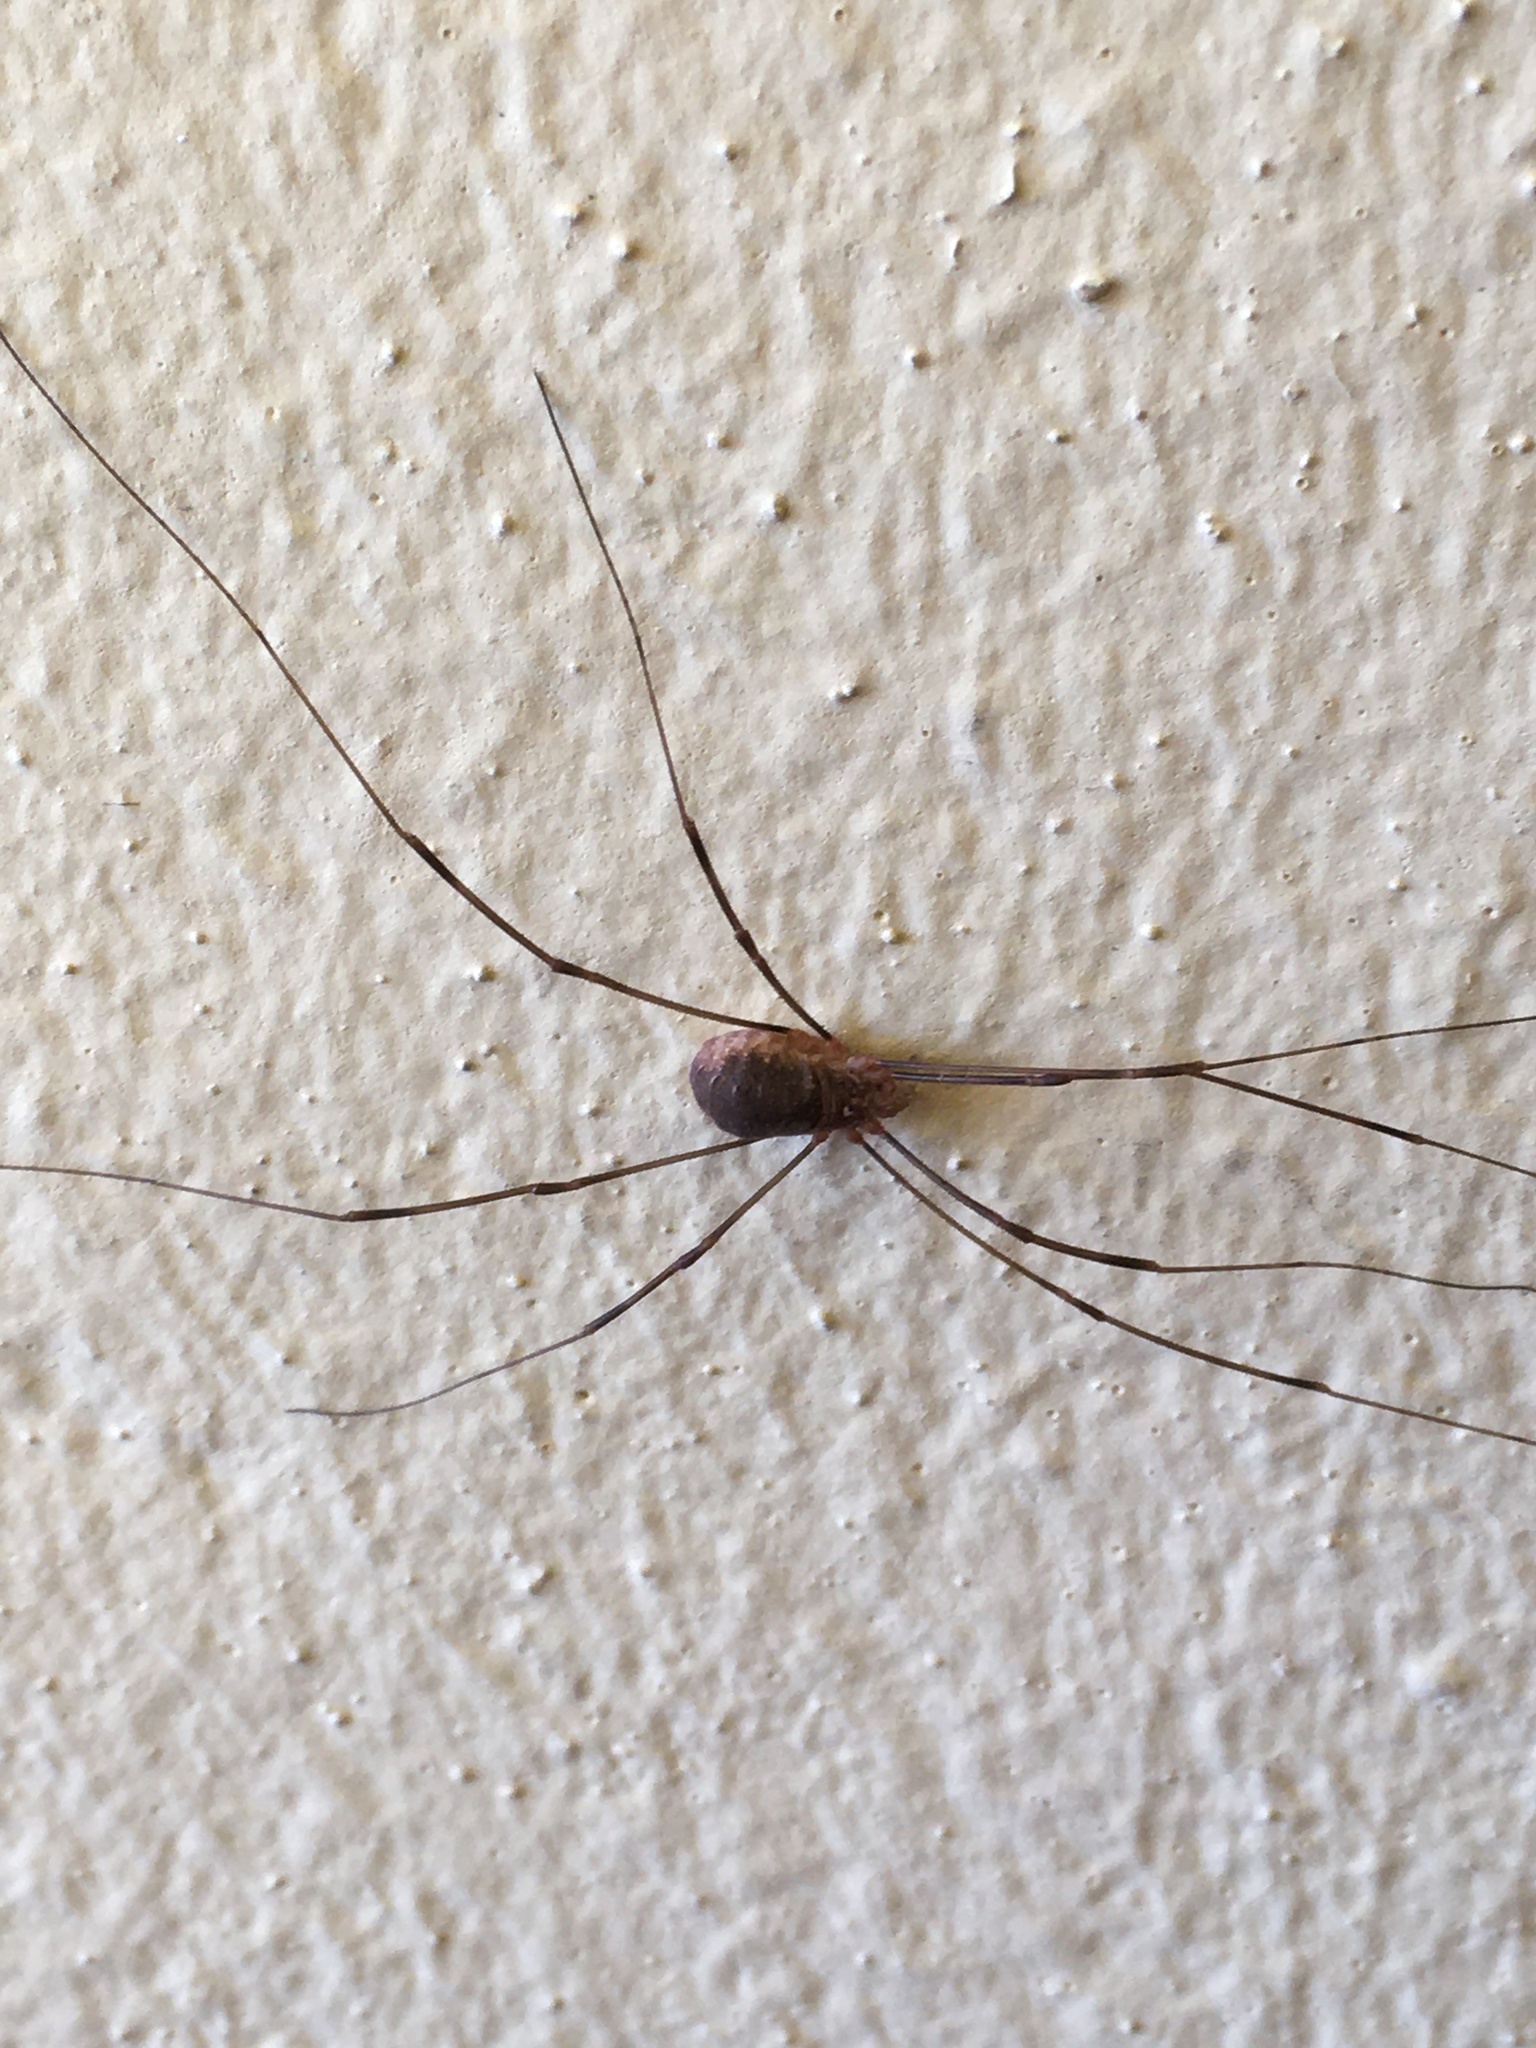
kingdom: Animalia
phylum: Arthropoda
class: Arachnida
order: Opiliones
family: Phalangiidae
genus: Opilio
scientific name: Opilio canestrinii
